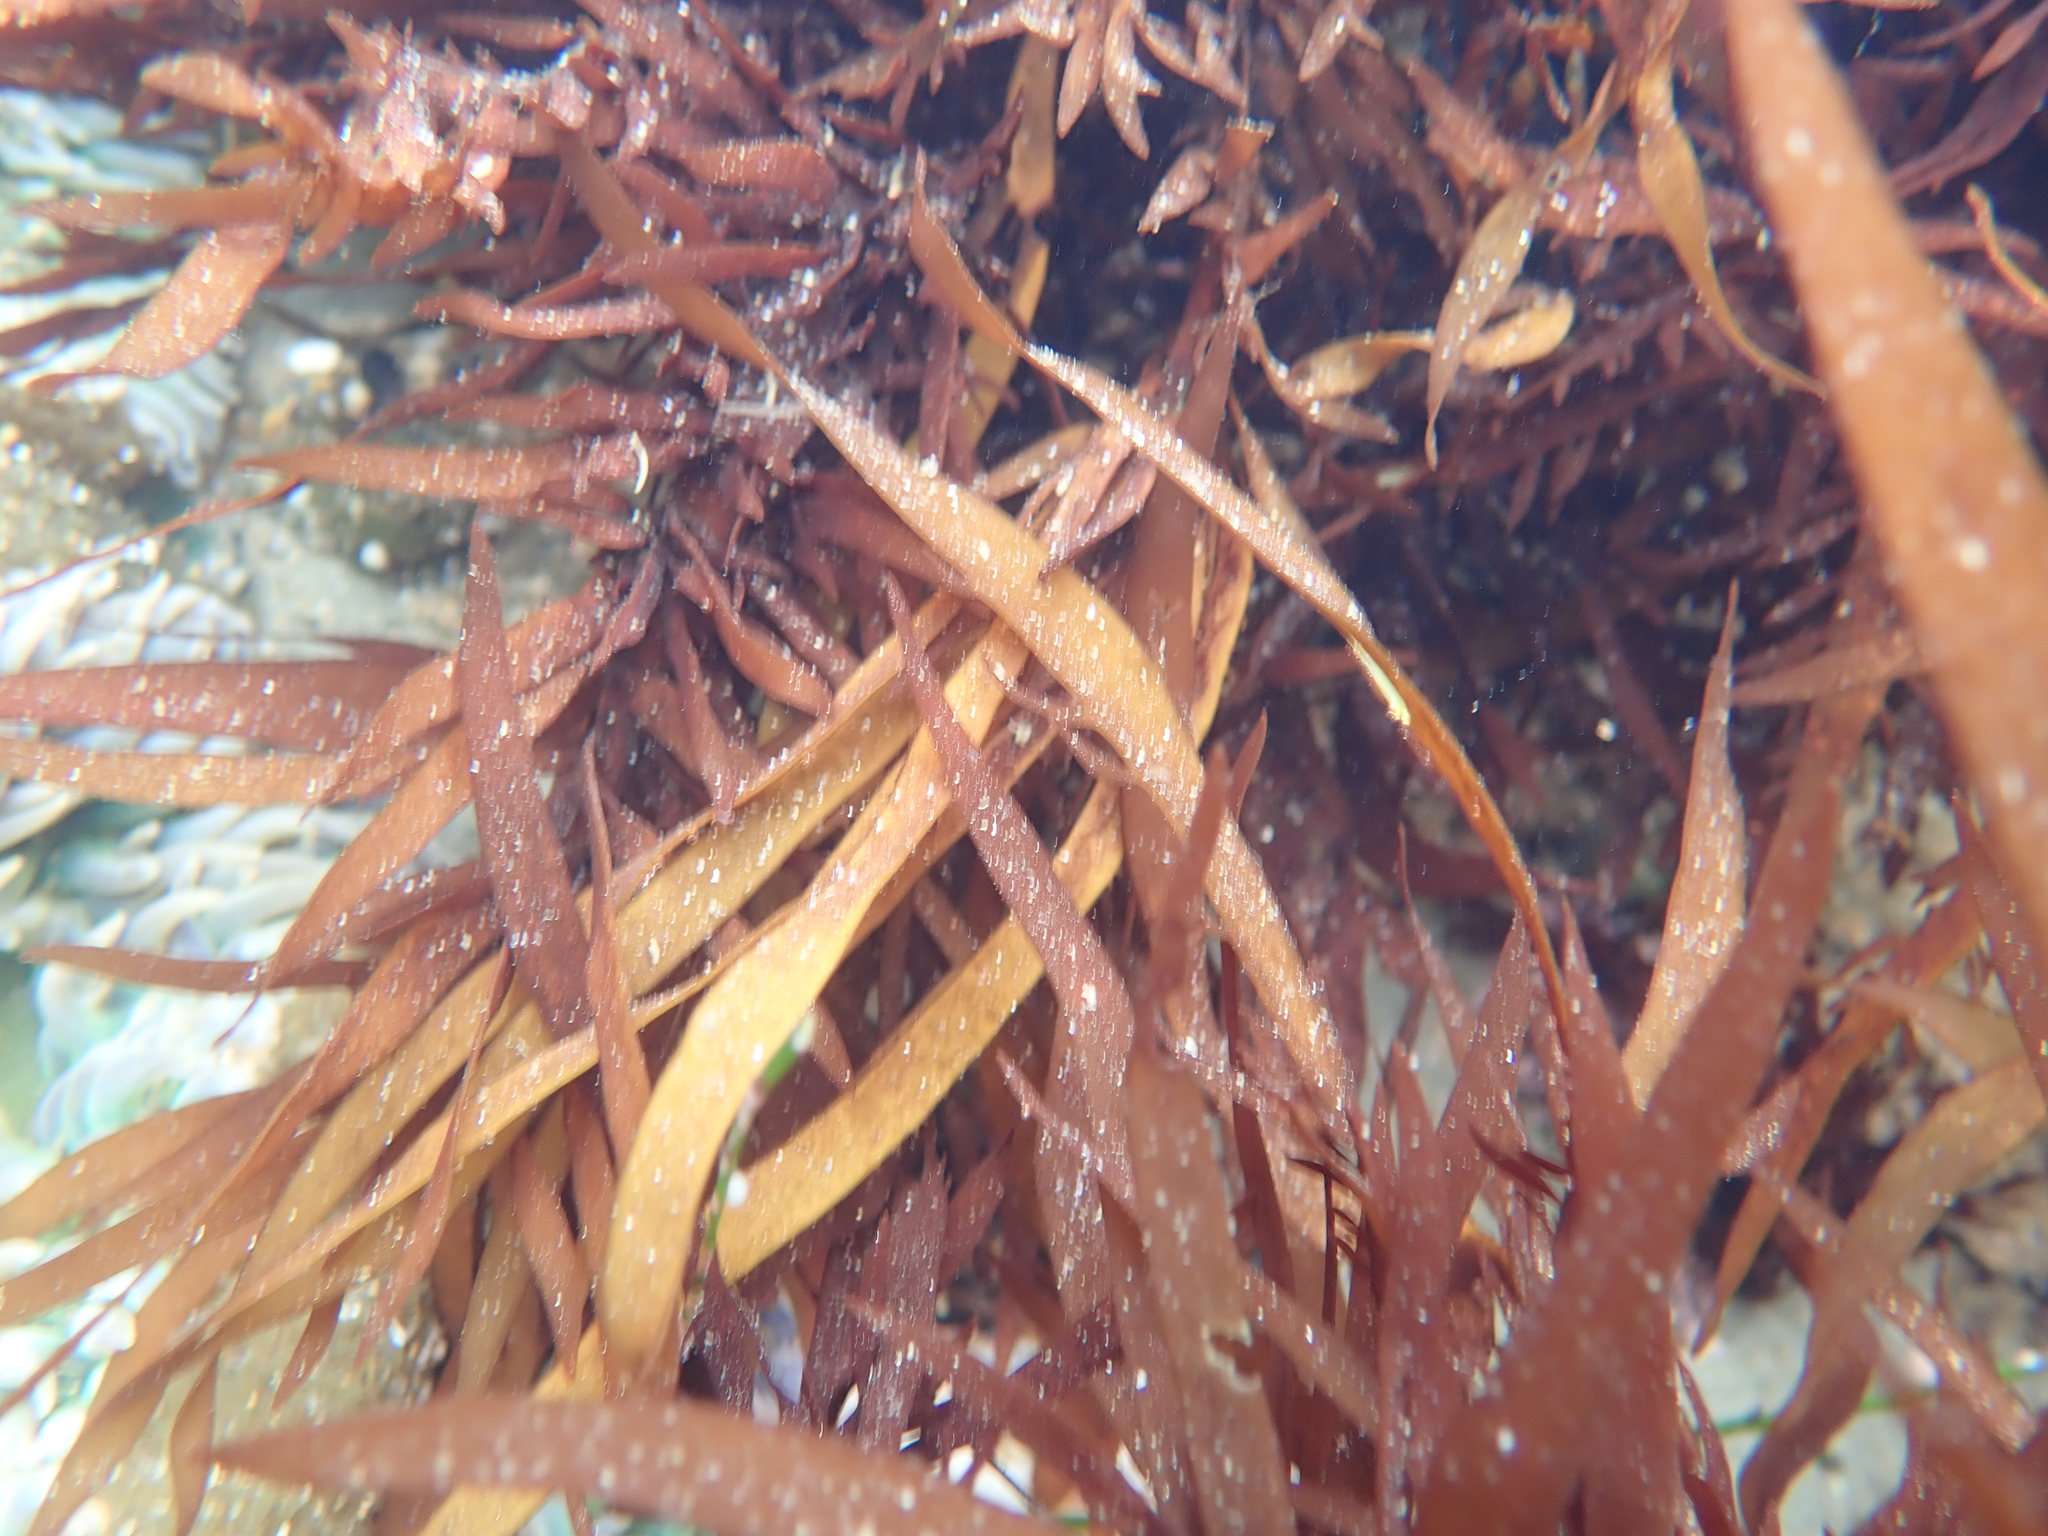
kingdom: Plantae
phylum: Rhodophyta
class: Florideophyceae
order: Halymeniales
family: Halymeniaceae
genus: Grateloupia
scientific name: Grateloupia Prionitis sternbergii
